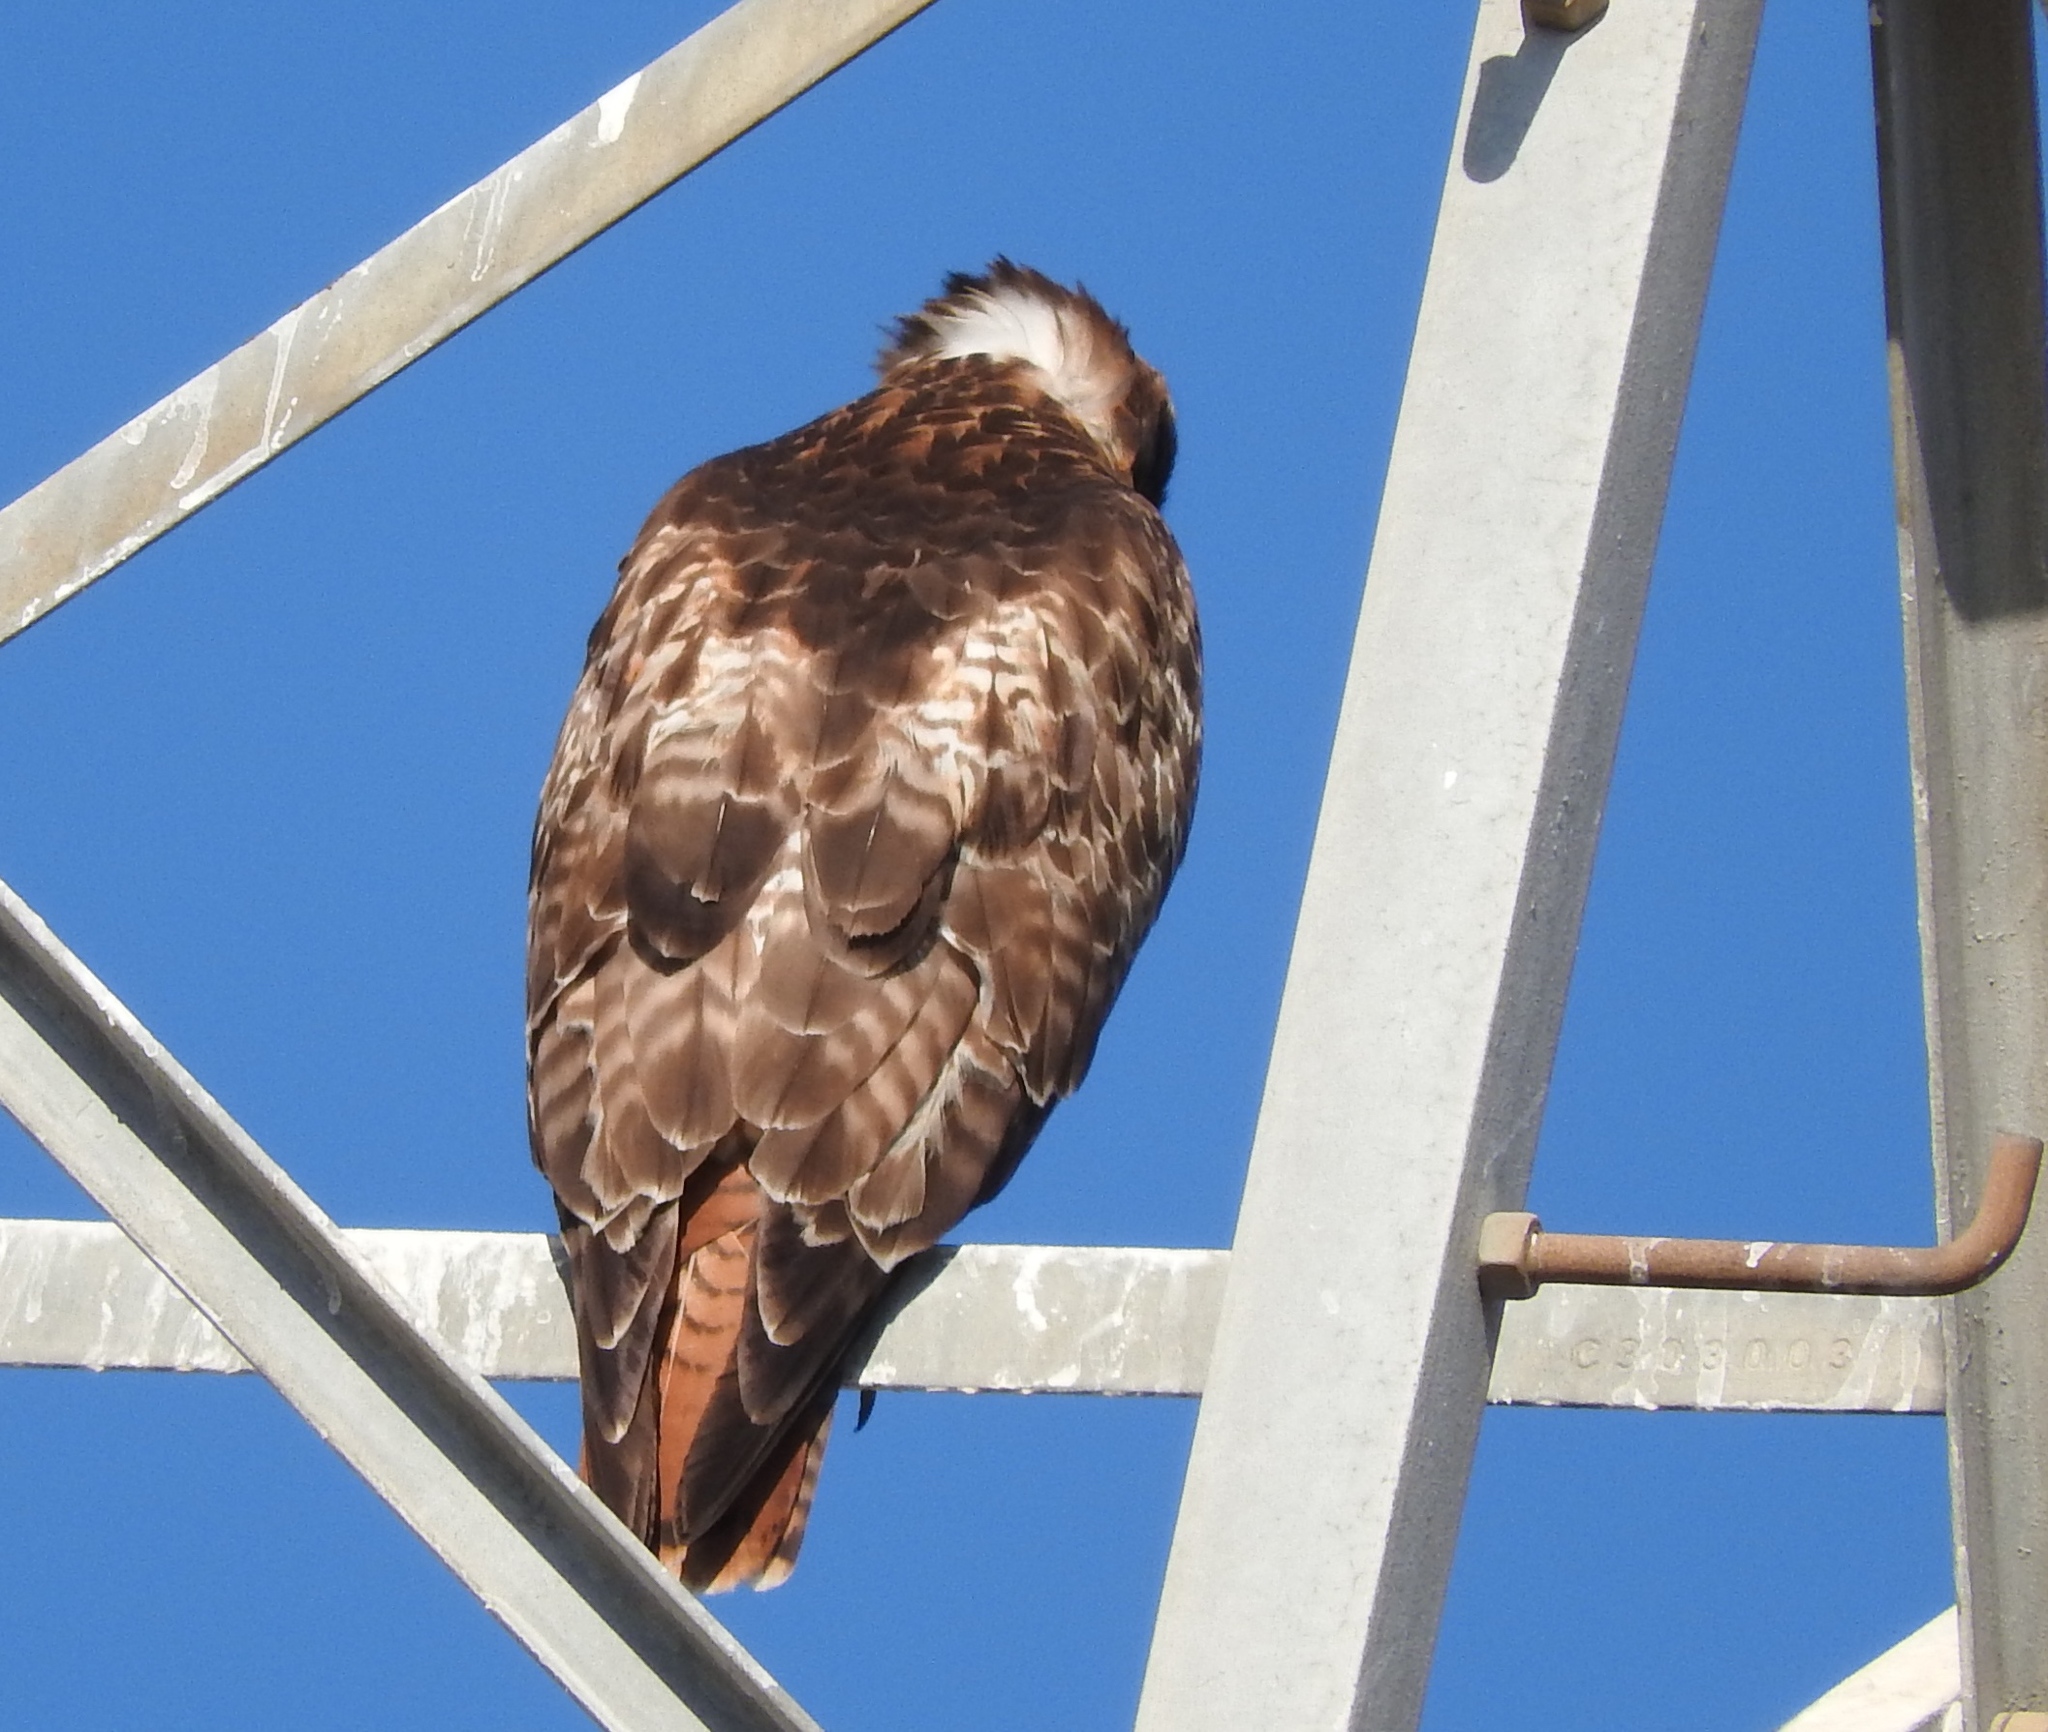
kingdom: Animalia
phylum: Chordata
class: Aves
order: Accipitriformes
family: Accipitridae
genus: Buteo
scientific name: Buteo jamaicensis
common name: Red-tailed hawk
